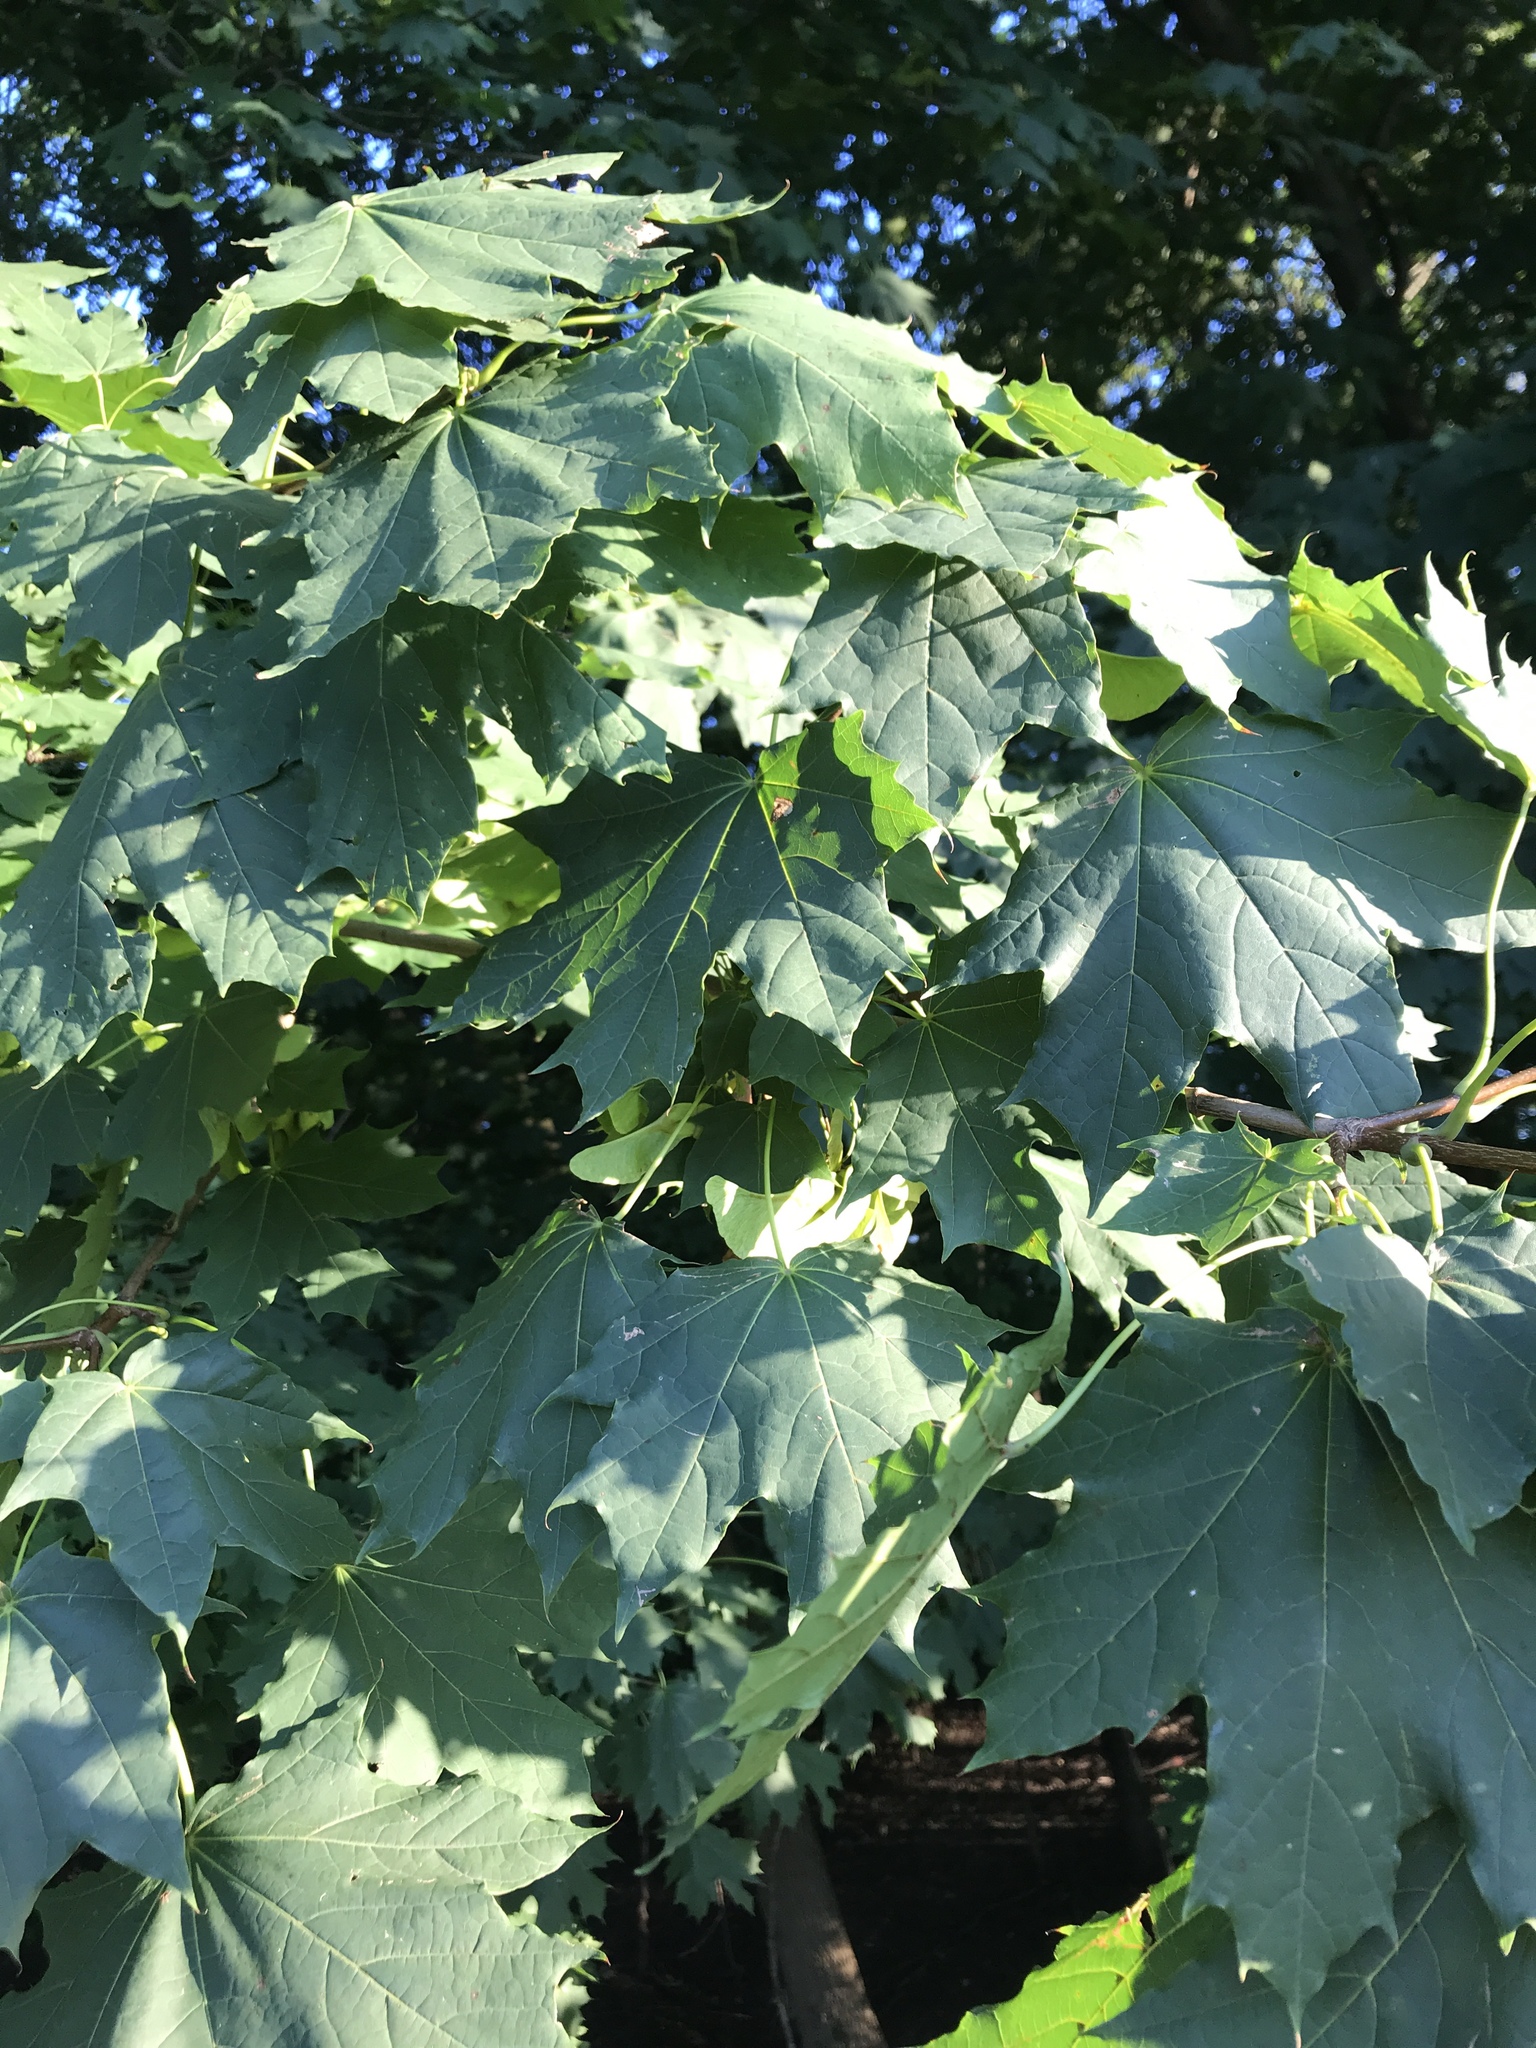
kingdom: Plantae
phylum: Tracheophyta
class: Magnoliopsida
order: Sapindales
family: Sapindaceae
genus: Acer
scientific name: Acer platanoides
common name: Norway maple
